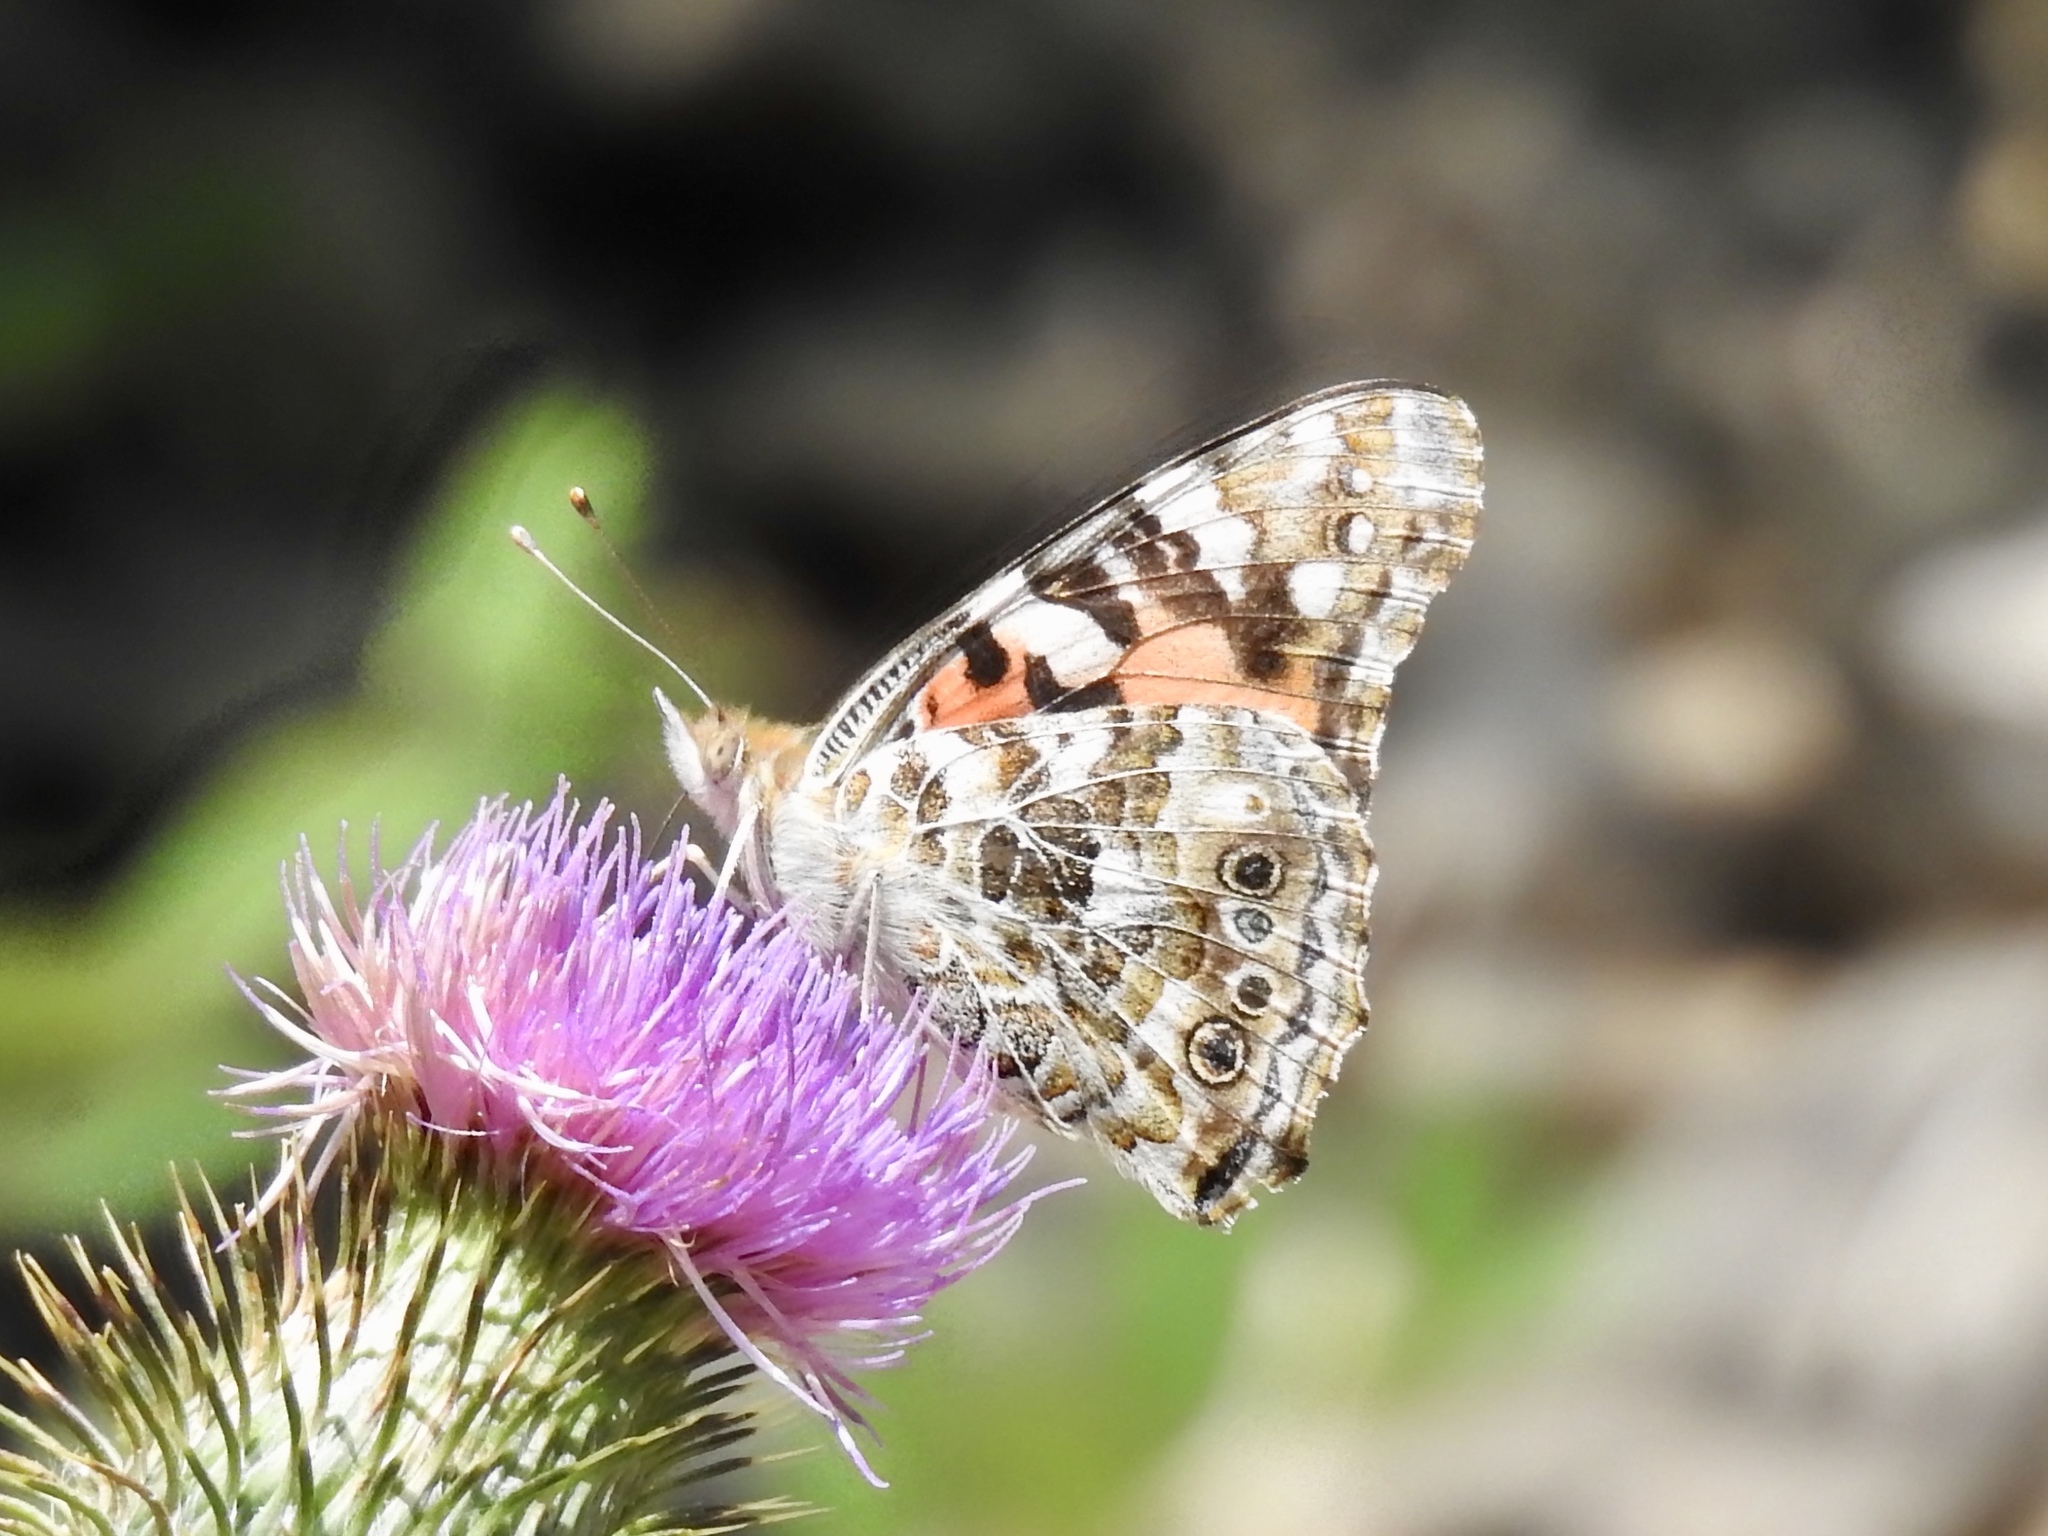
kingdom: Animalia
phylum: Arthropoda
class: Insecta
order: Lepidoptera
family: Nymphalidae
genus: Vanessa
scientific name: Vanessa cardui
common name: Painted lady
